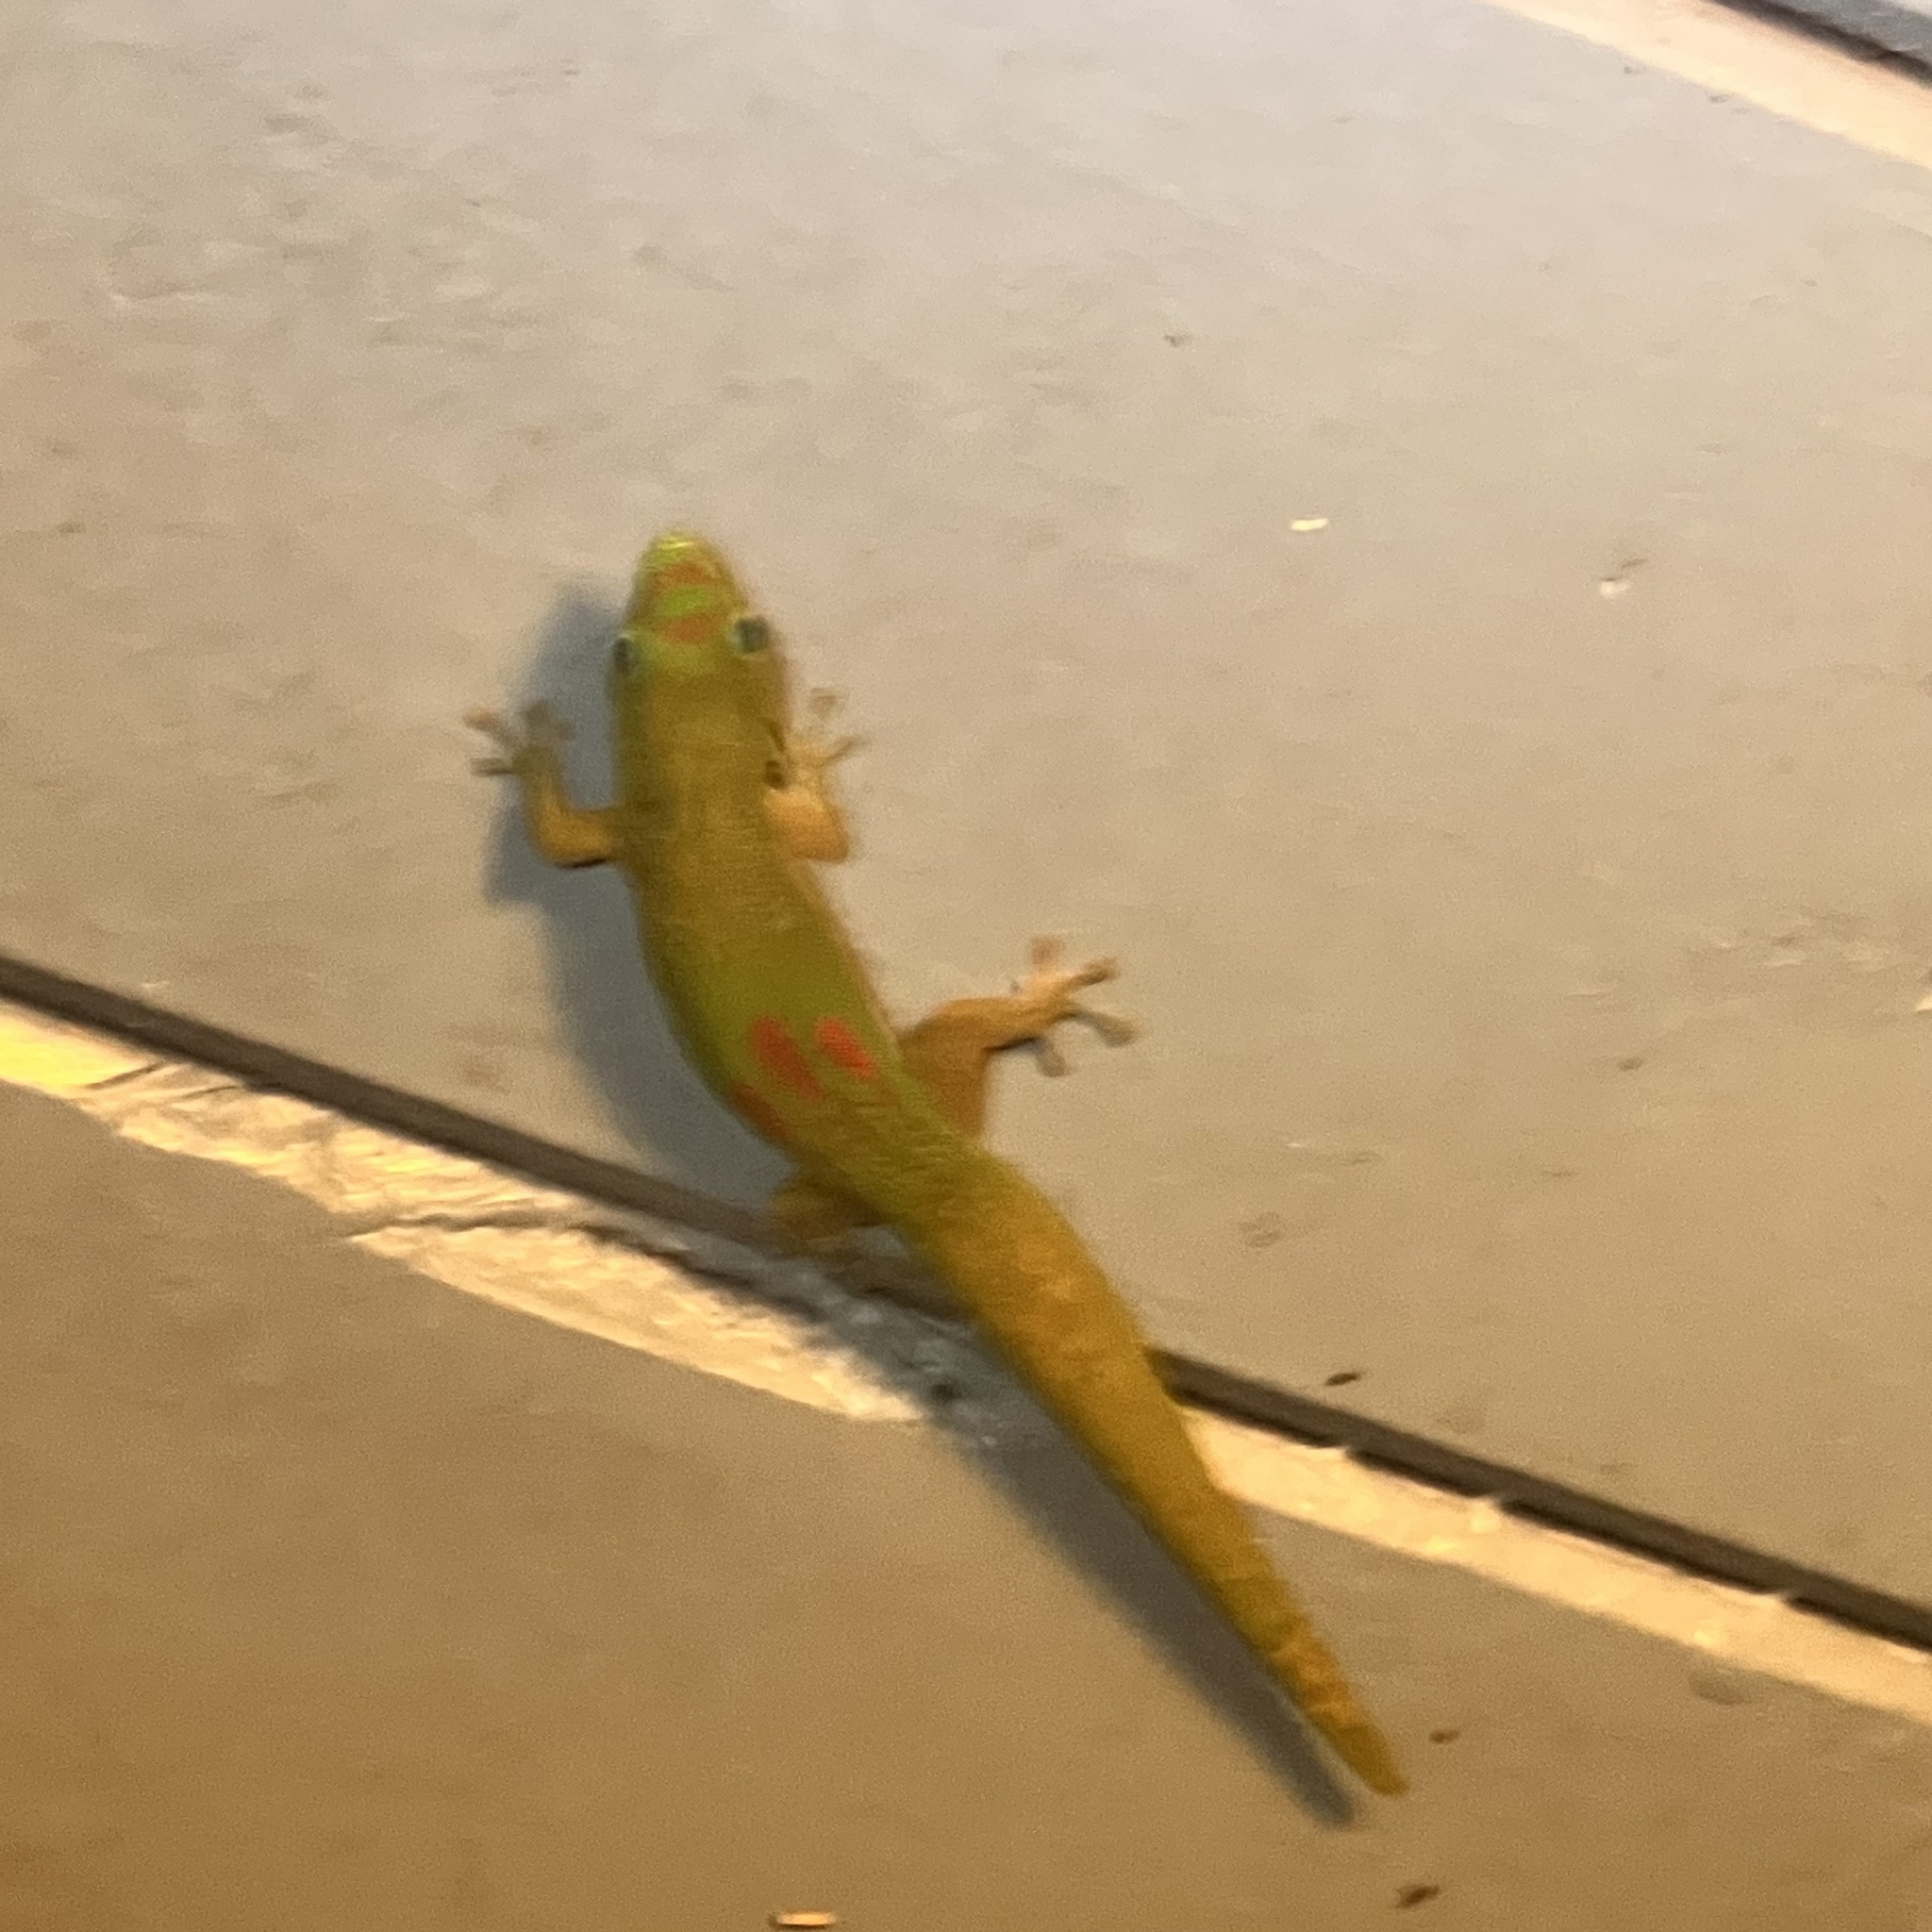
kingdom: Animalia
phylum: Chordata
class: Squamata
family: Gekkonidae
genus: Phelsuma
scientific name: Phelsuma laticauda
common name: Gold dust day gecko
